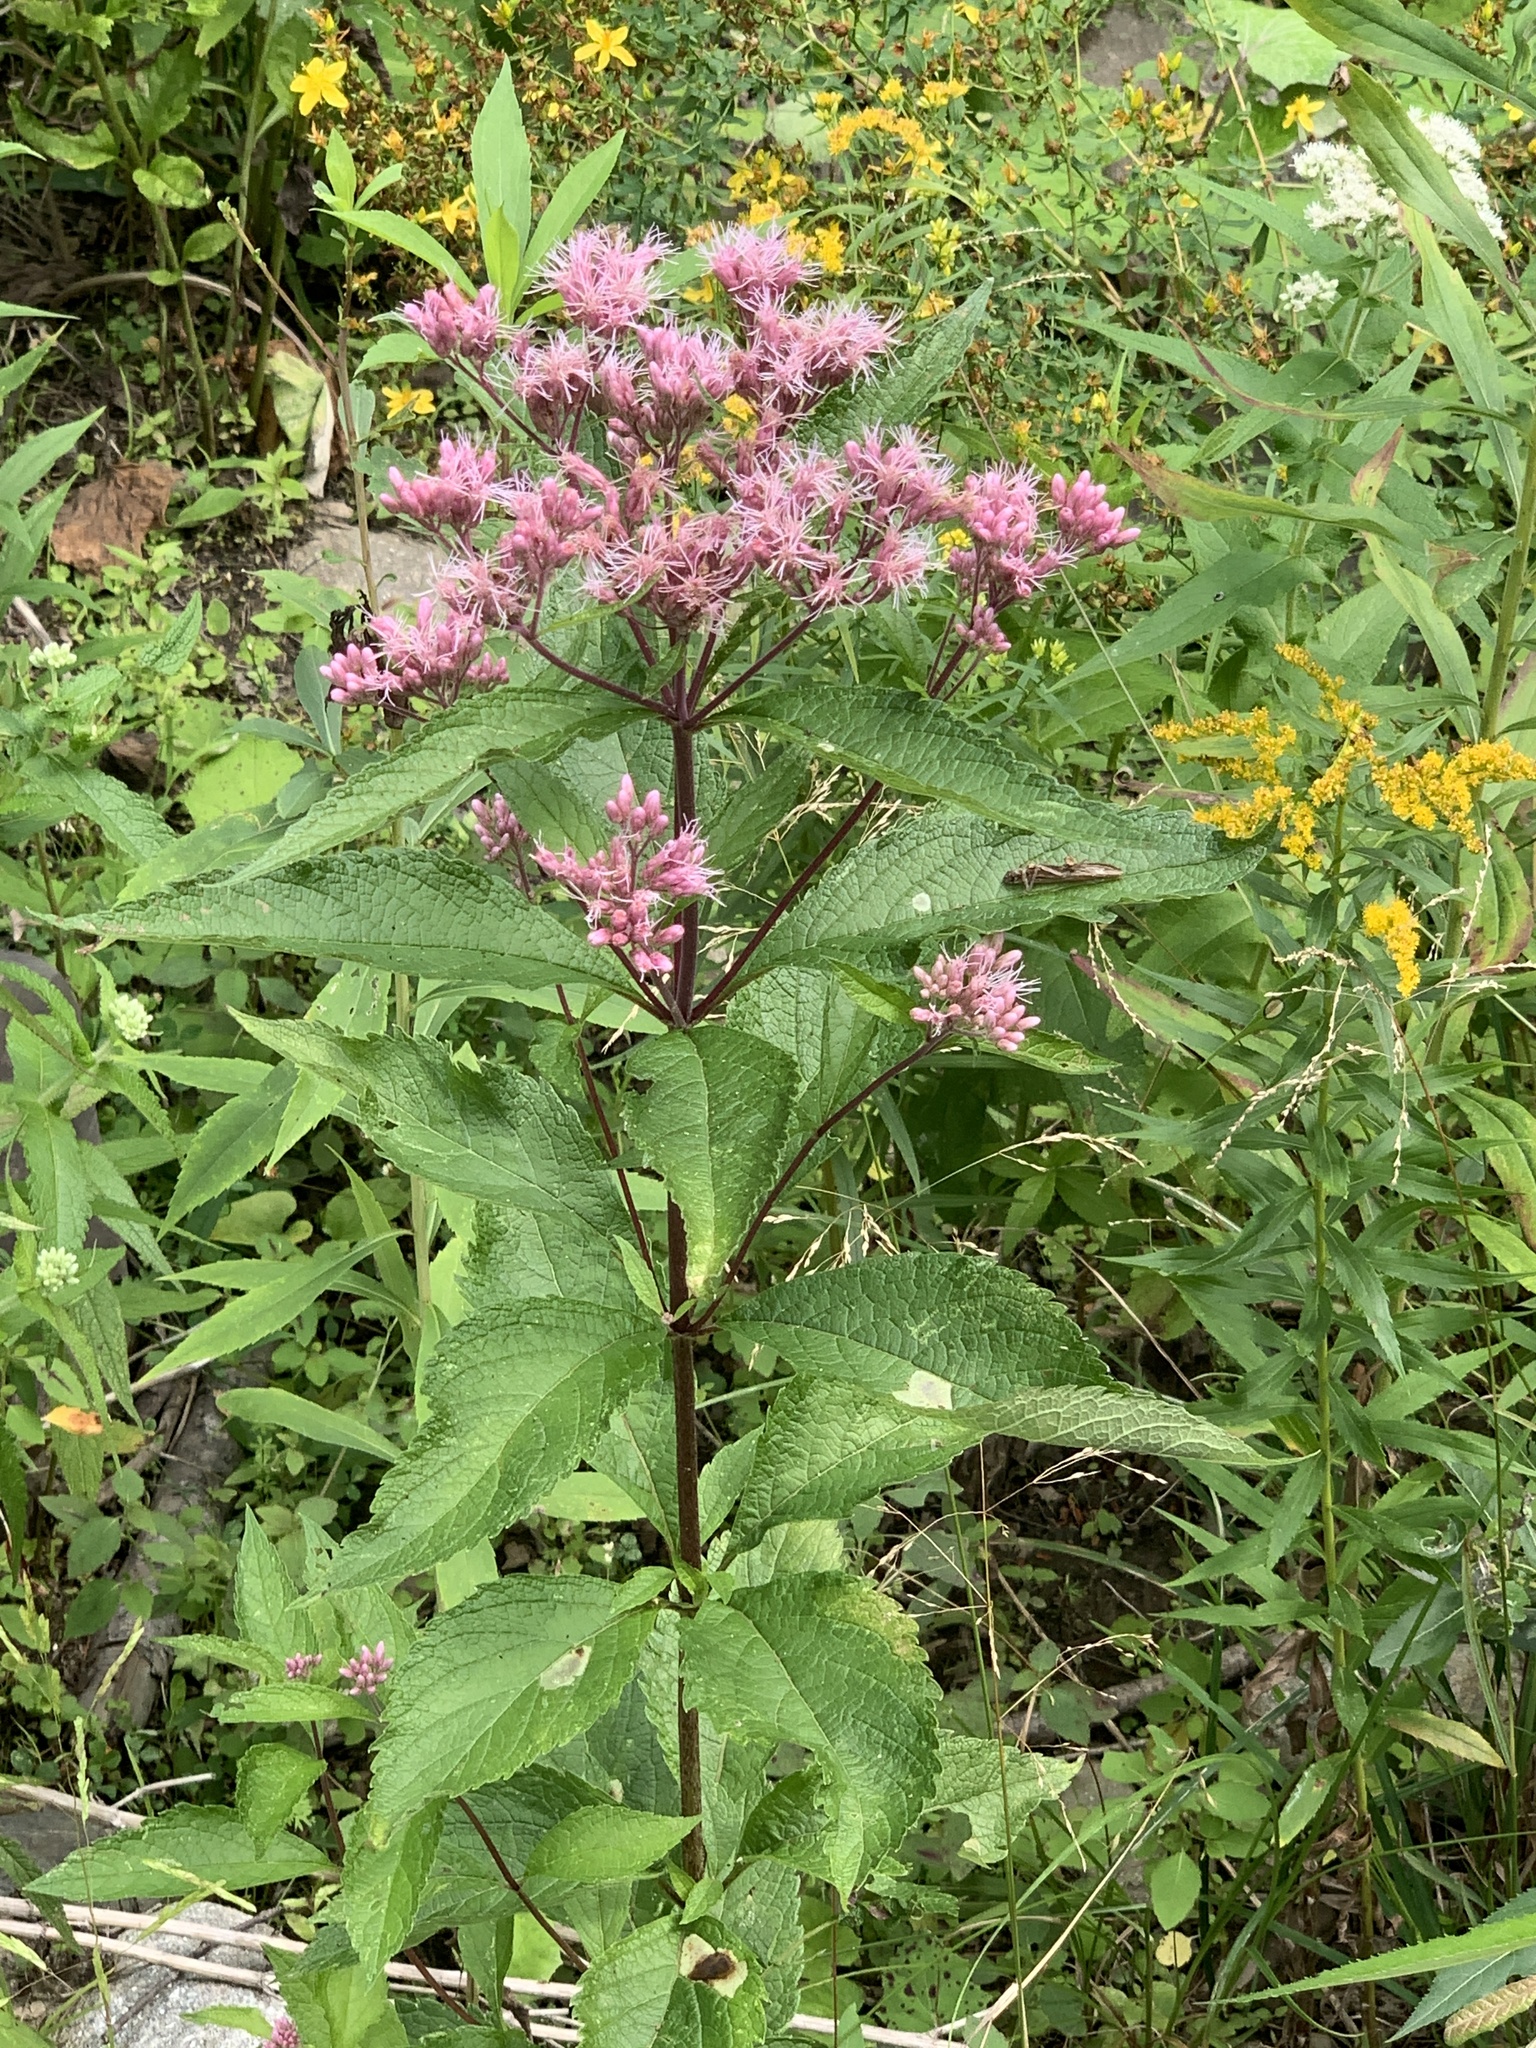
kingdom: Plantae
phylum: Tracheophyta
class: Magnoliopsida
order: Asterales
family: Asteraceae
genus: Eutrochium
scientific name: Eutrochium maculatum
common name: Spotted joe pye weed
